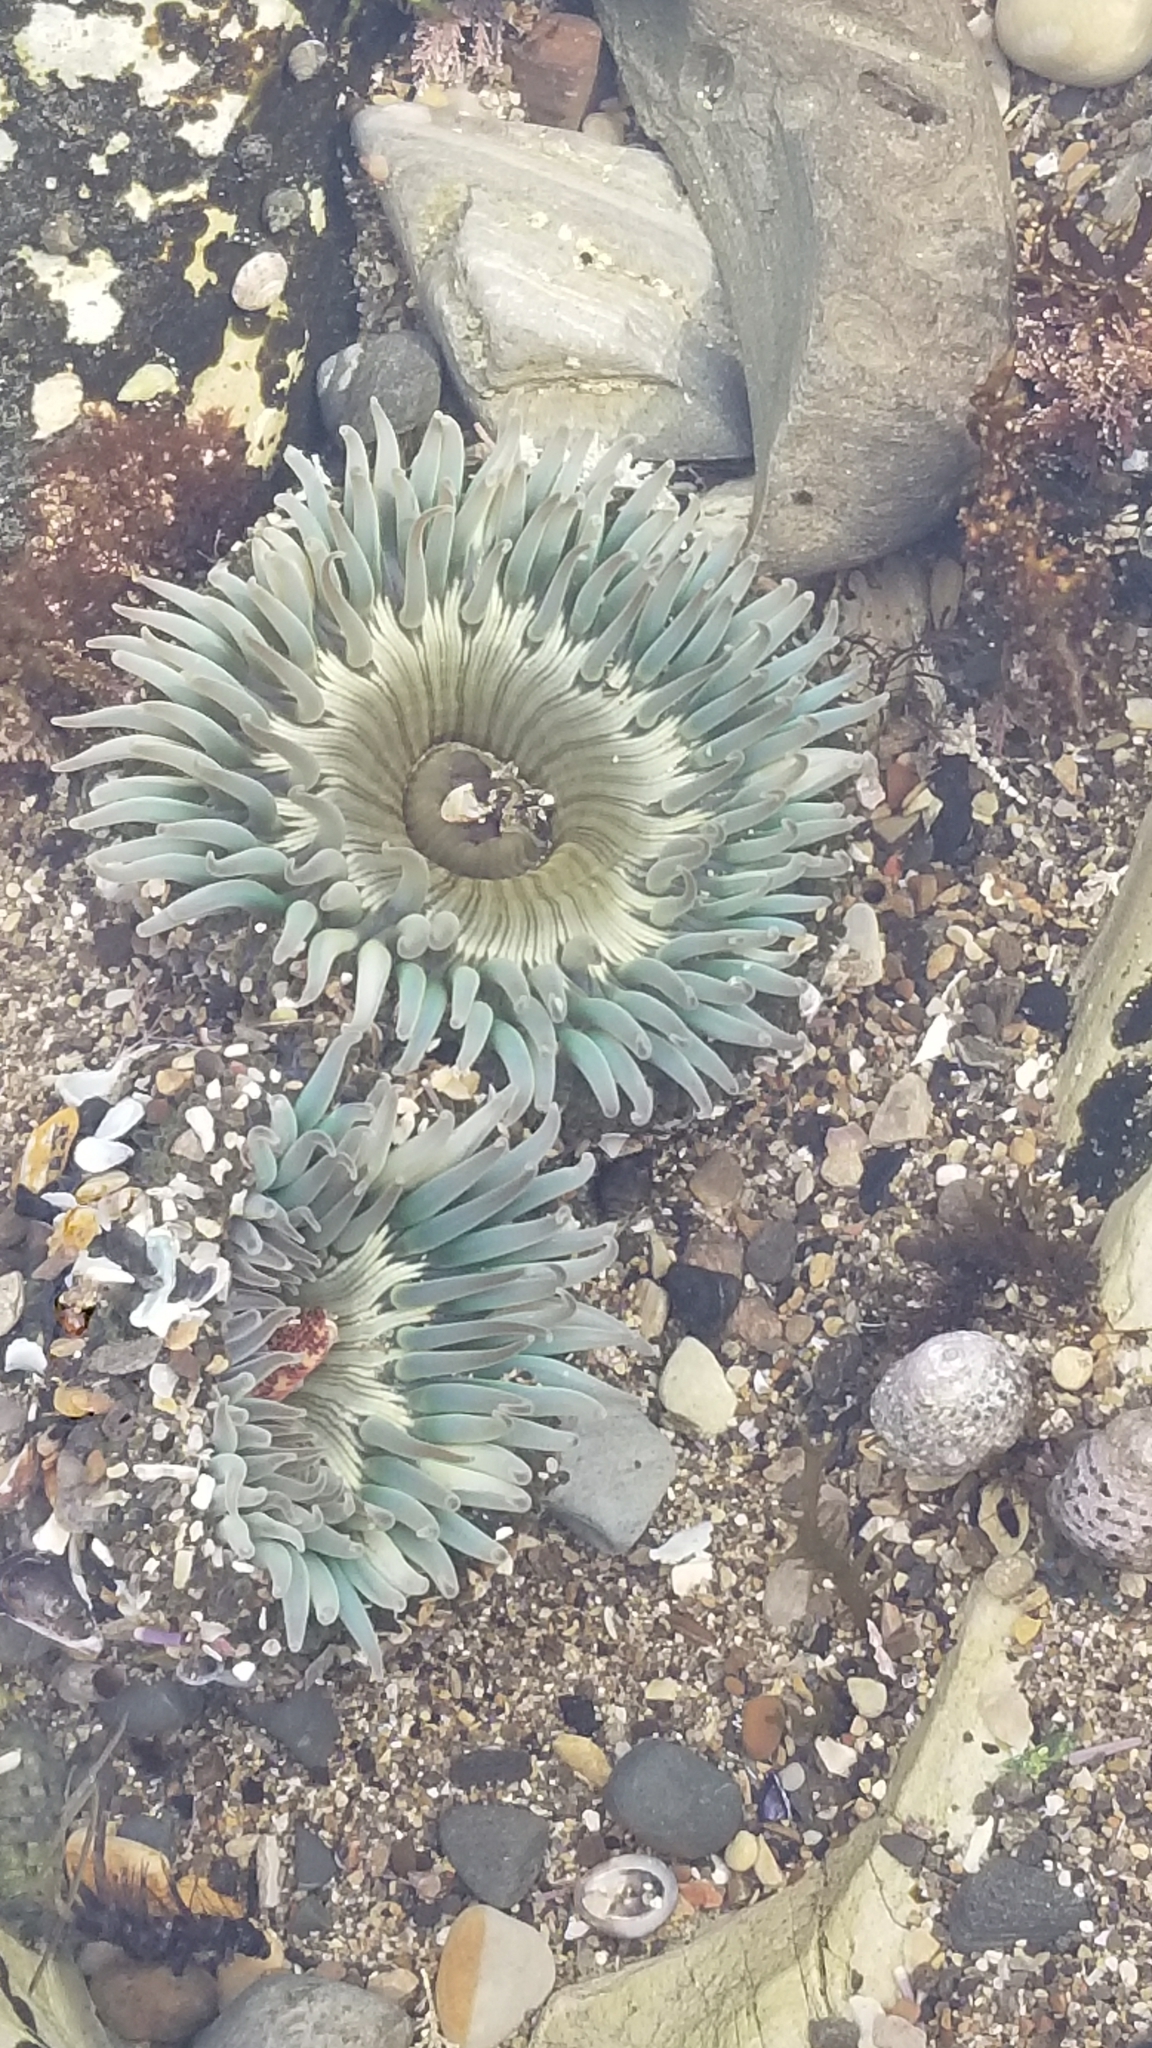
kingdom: Animalia
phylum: Cnidaria
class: Anthozoa
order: Actiniaria
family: Actiniidae
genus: Anthopleura
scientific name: Anthopleura sola
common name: Sun anemone
